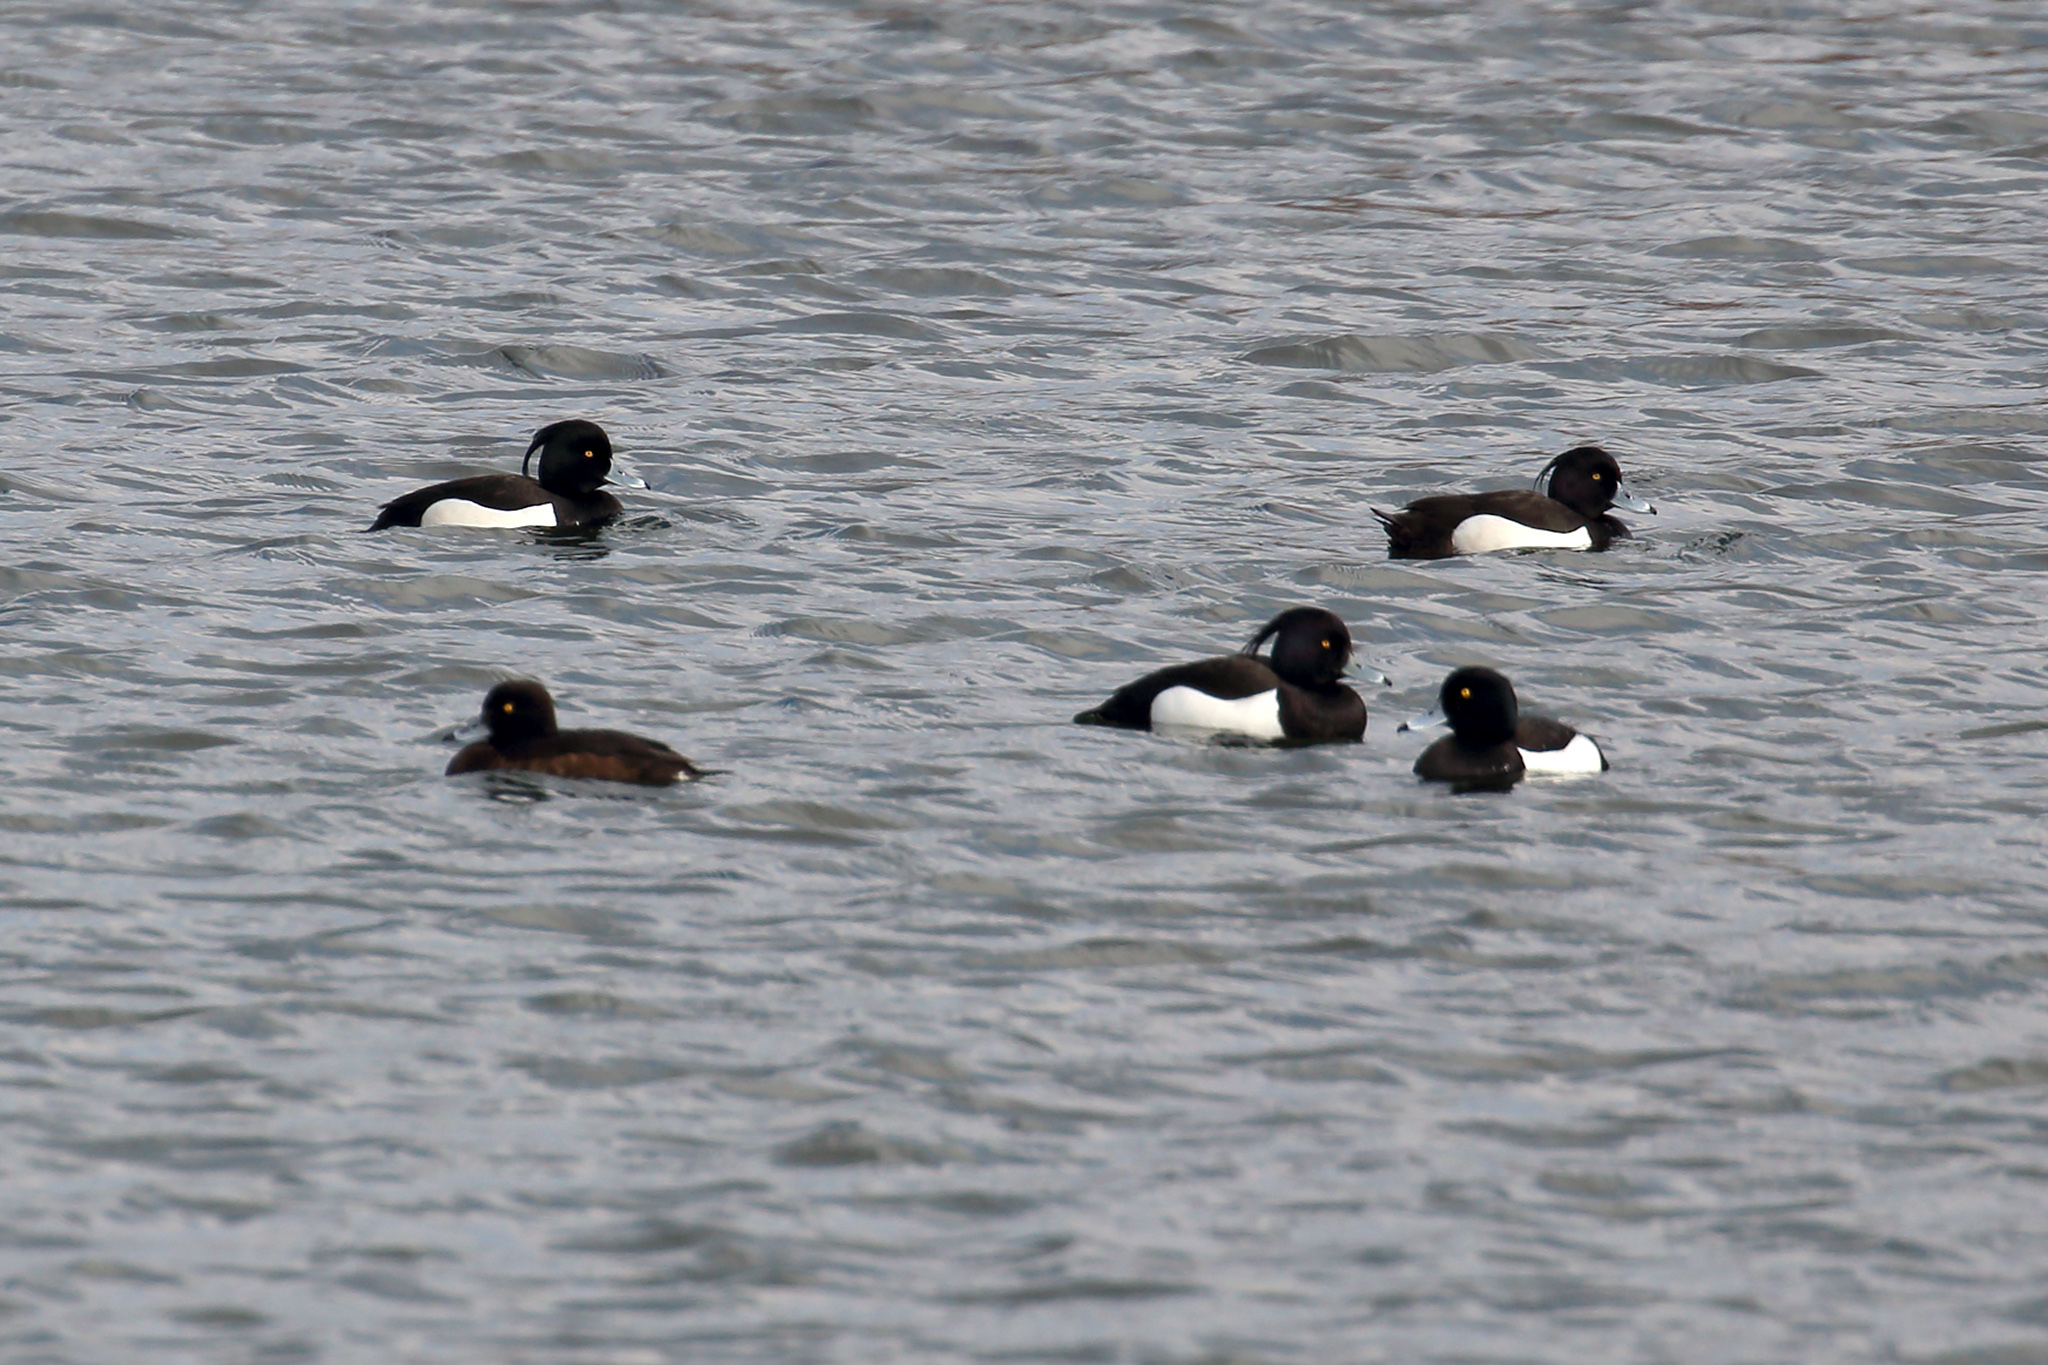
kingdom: Animalia
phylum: Chordata
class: Aves
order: Anseriformes
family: Anatidae
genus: Aythya
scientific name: Aythya fuligula
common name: Tufted duck
